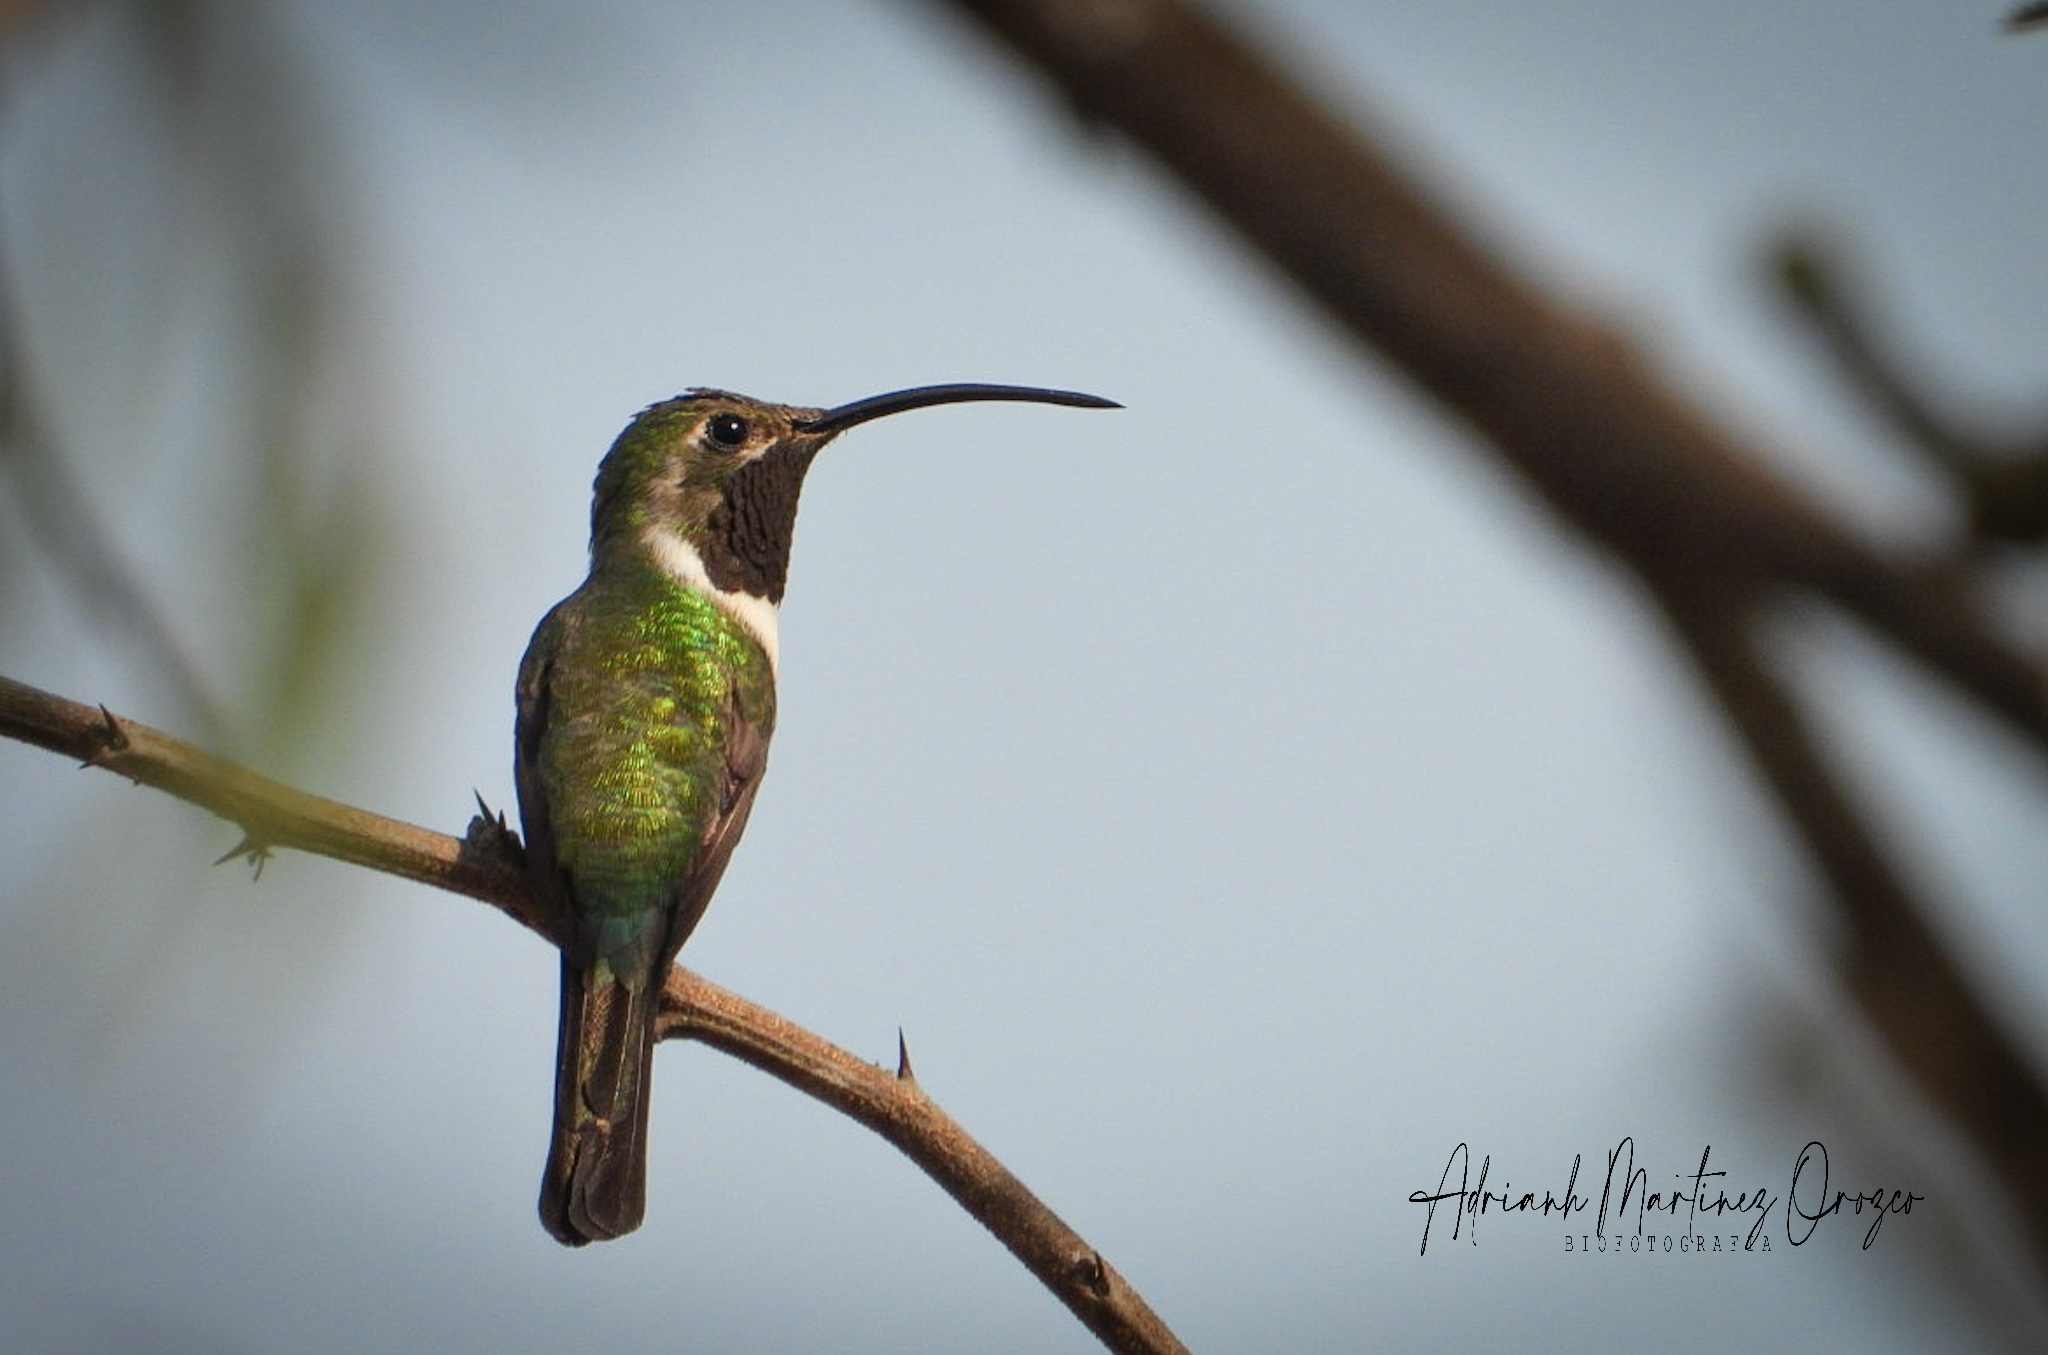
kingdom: Animalia
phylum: Chordata
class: Aves
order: Apodiformes
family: Trochilidae
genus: Doricha
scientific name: Doricha eliza
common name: Mexican sheartail
